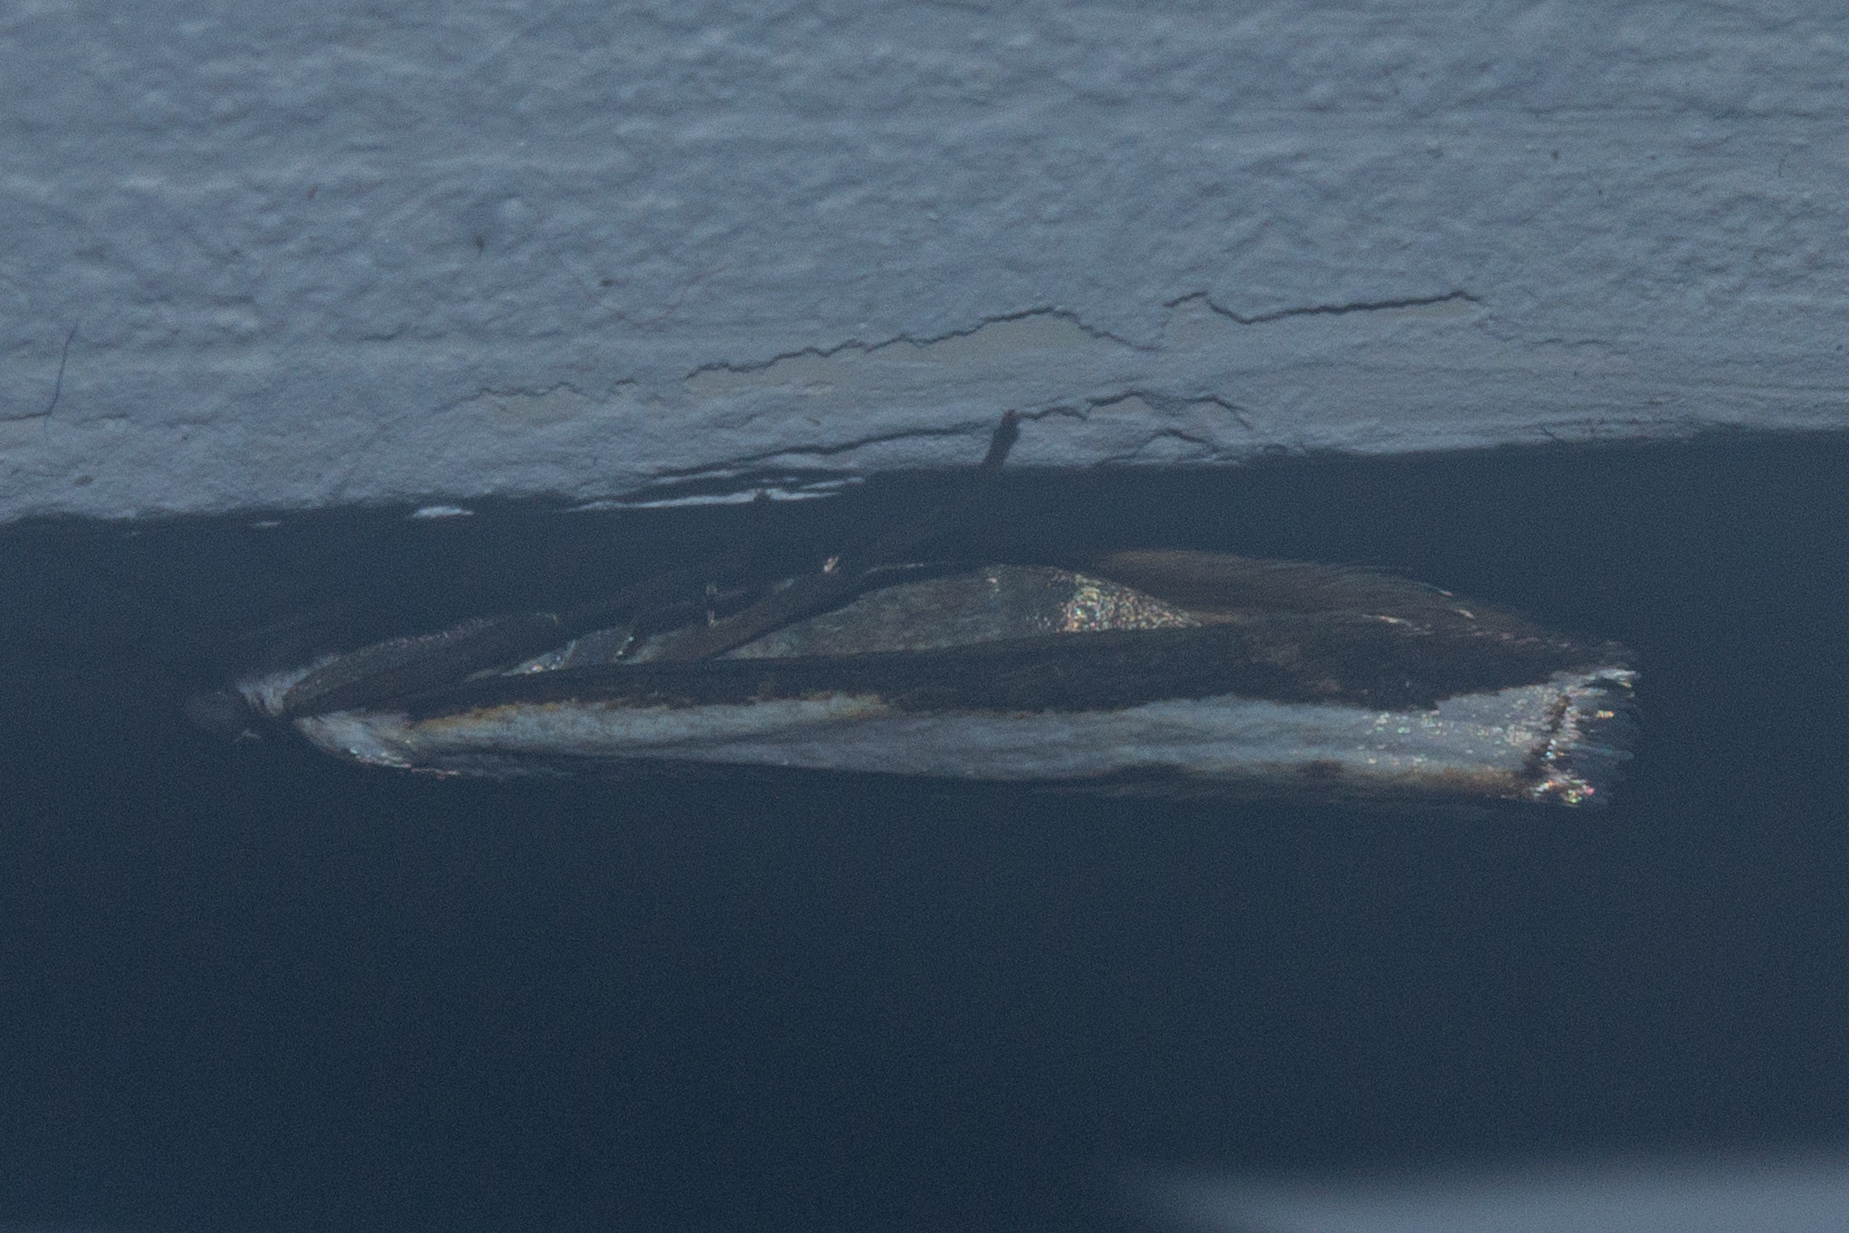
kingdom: Animalia
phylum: Arthropoda
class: Insecta
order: Lepidoptera
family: Crambidae
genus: Orocrambus
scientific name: Orocrambus flexuosellus
